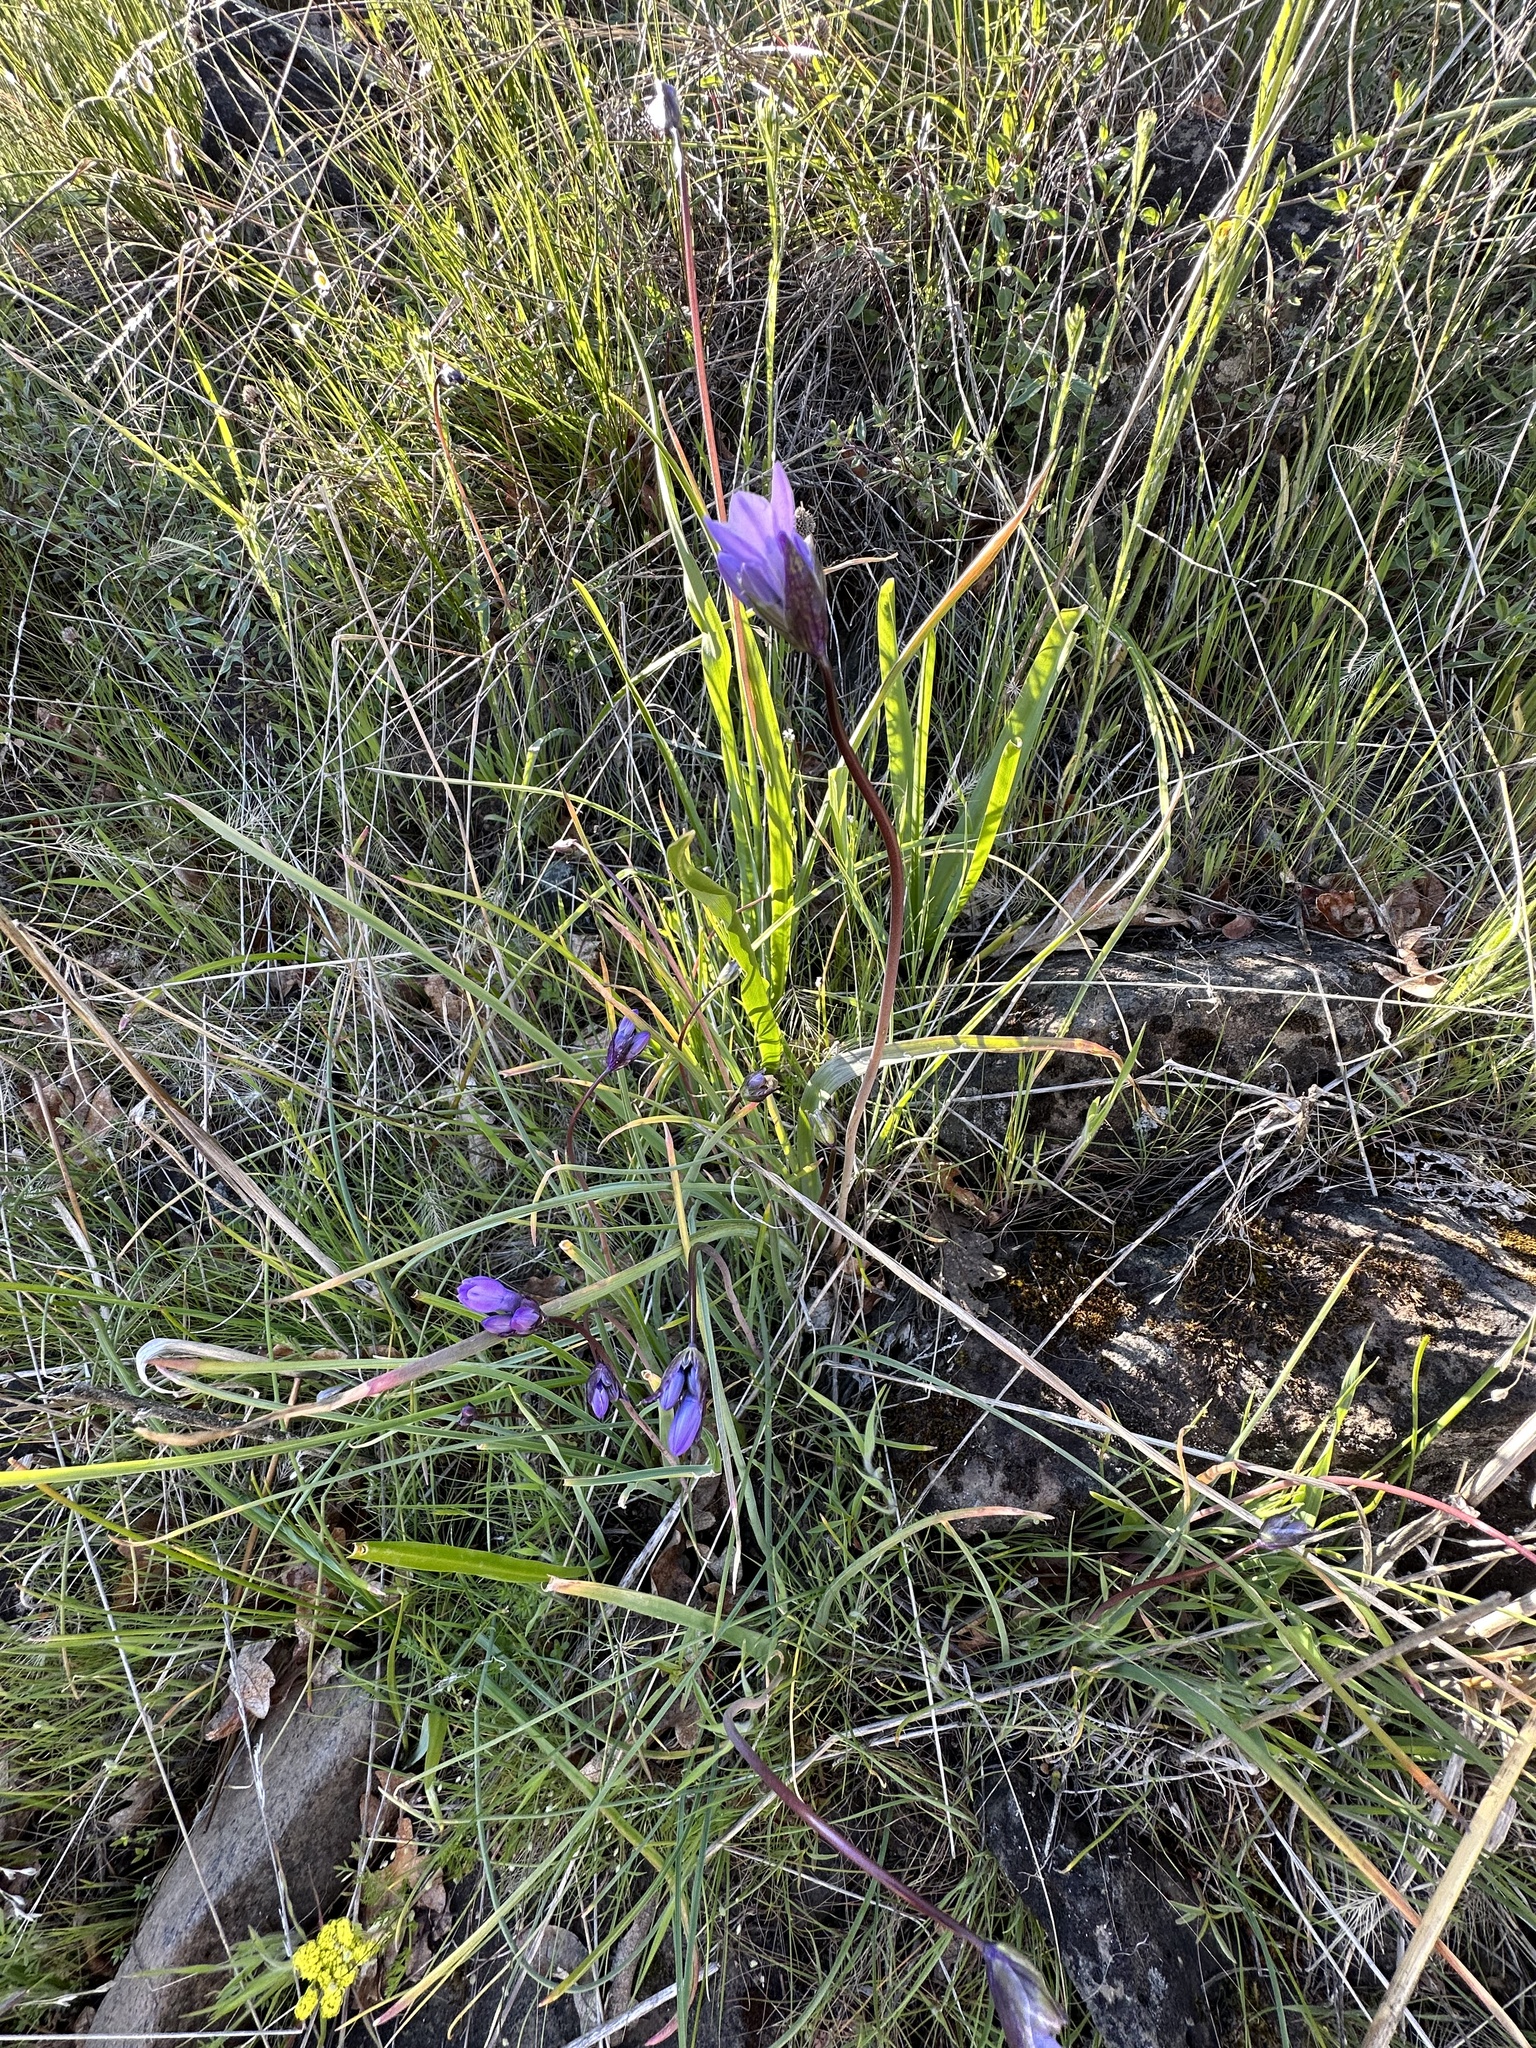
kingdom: Plantae
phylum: Tracheophyta
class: Liliopsida
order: Asparagales
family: Asparagaceae
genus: Dipterostemon
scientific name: Dipterostemon capitatus
